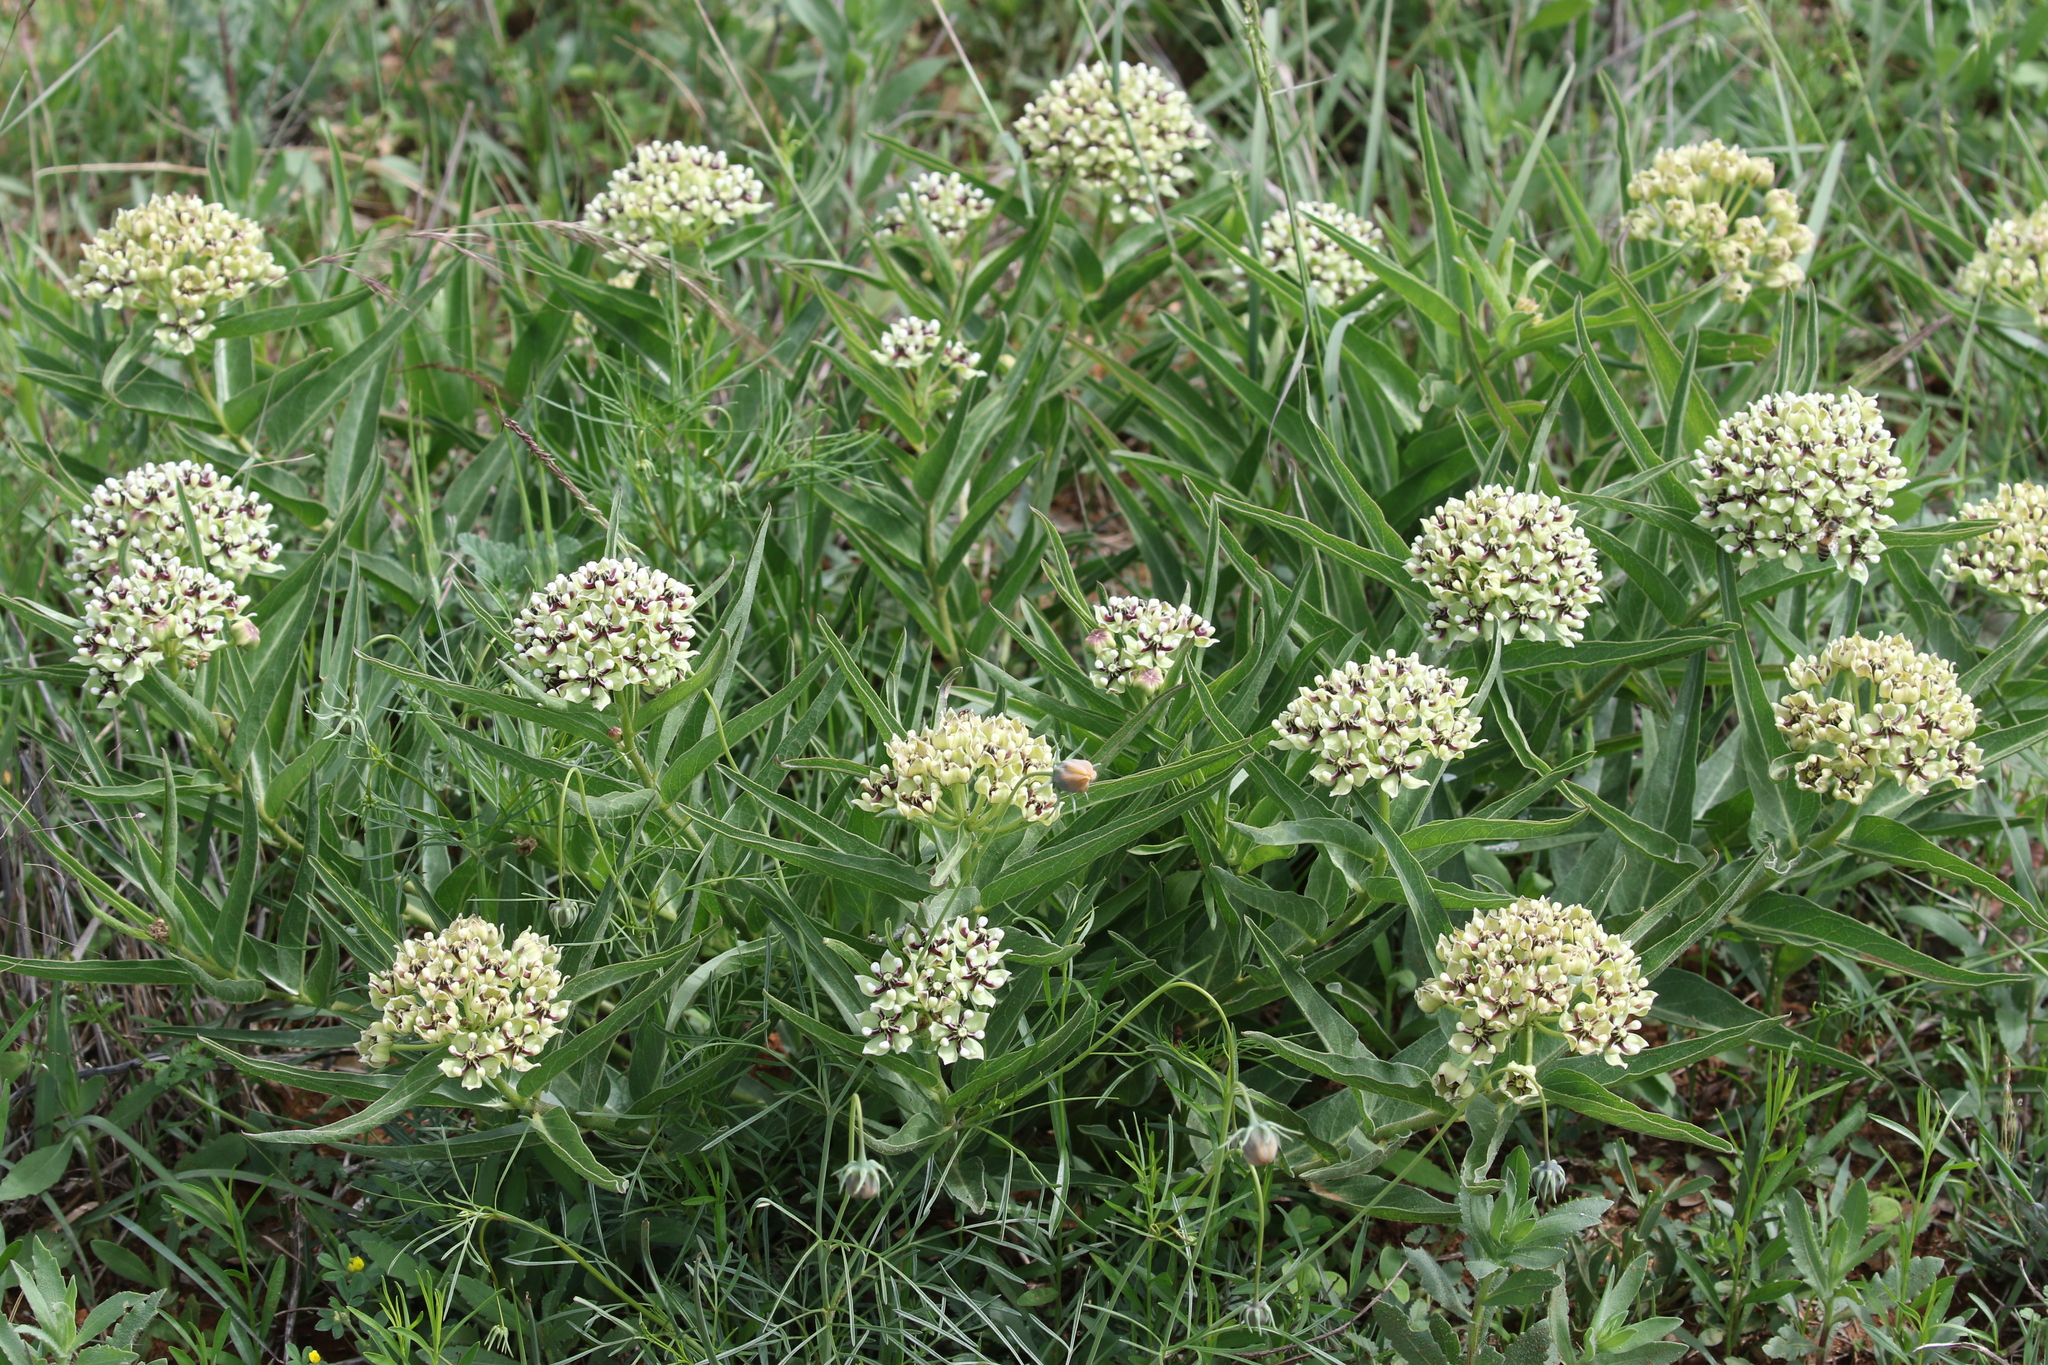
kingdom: Plantae
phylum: Tracheophyta
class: Magnoliopsida
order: Gentianales
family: Apocynaceae
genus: Asclepias
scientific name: Asclepias asperula
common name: Antelope horns
